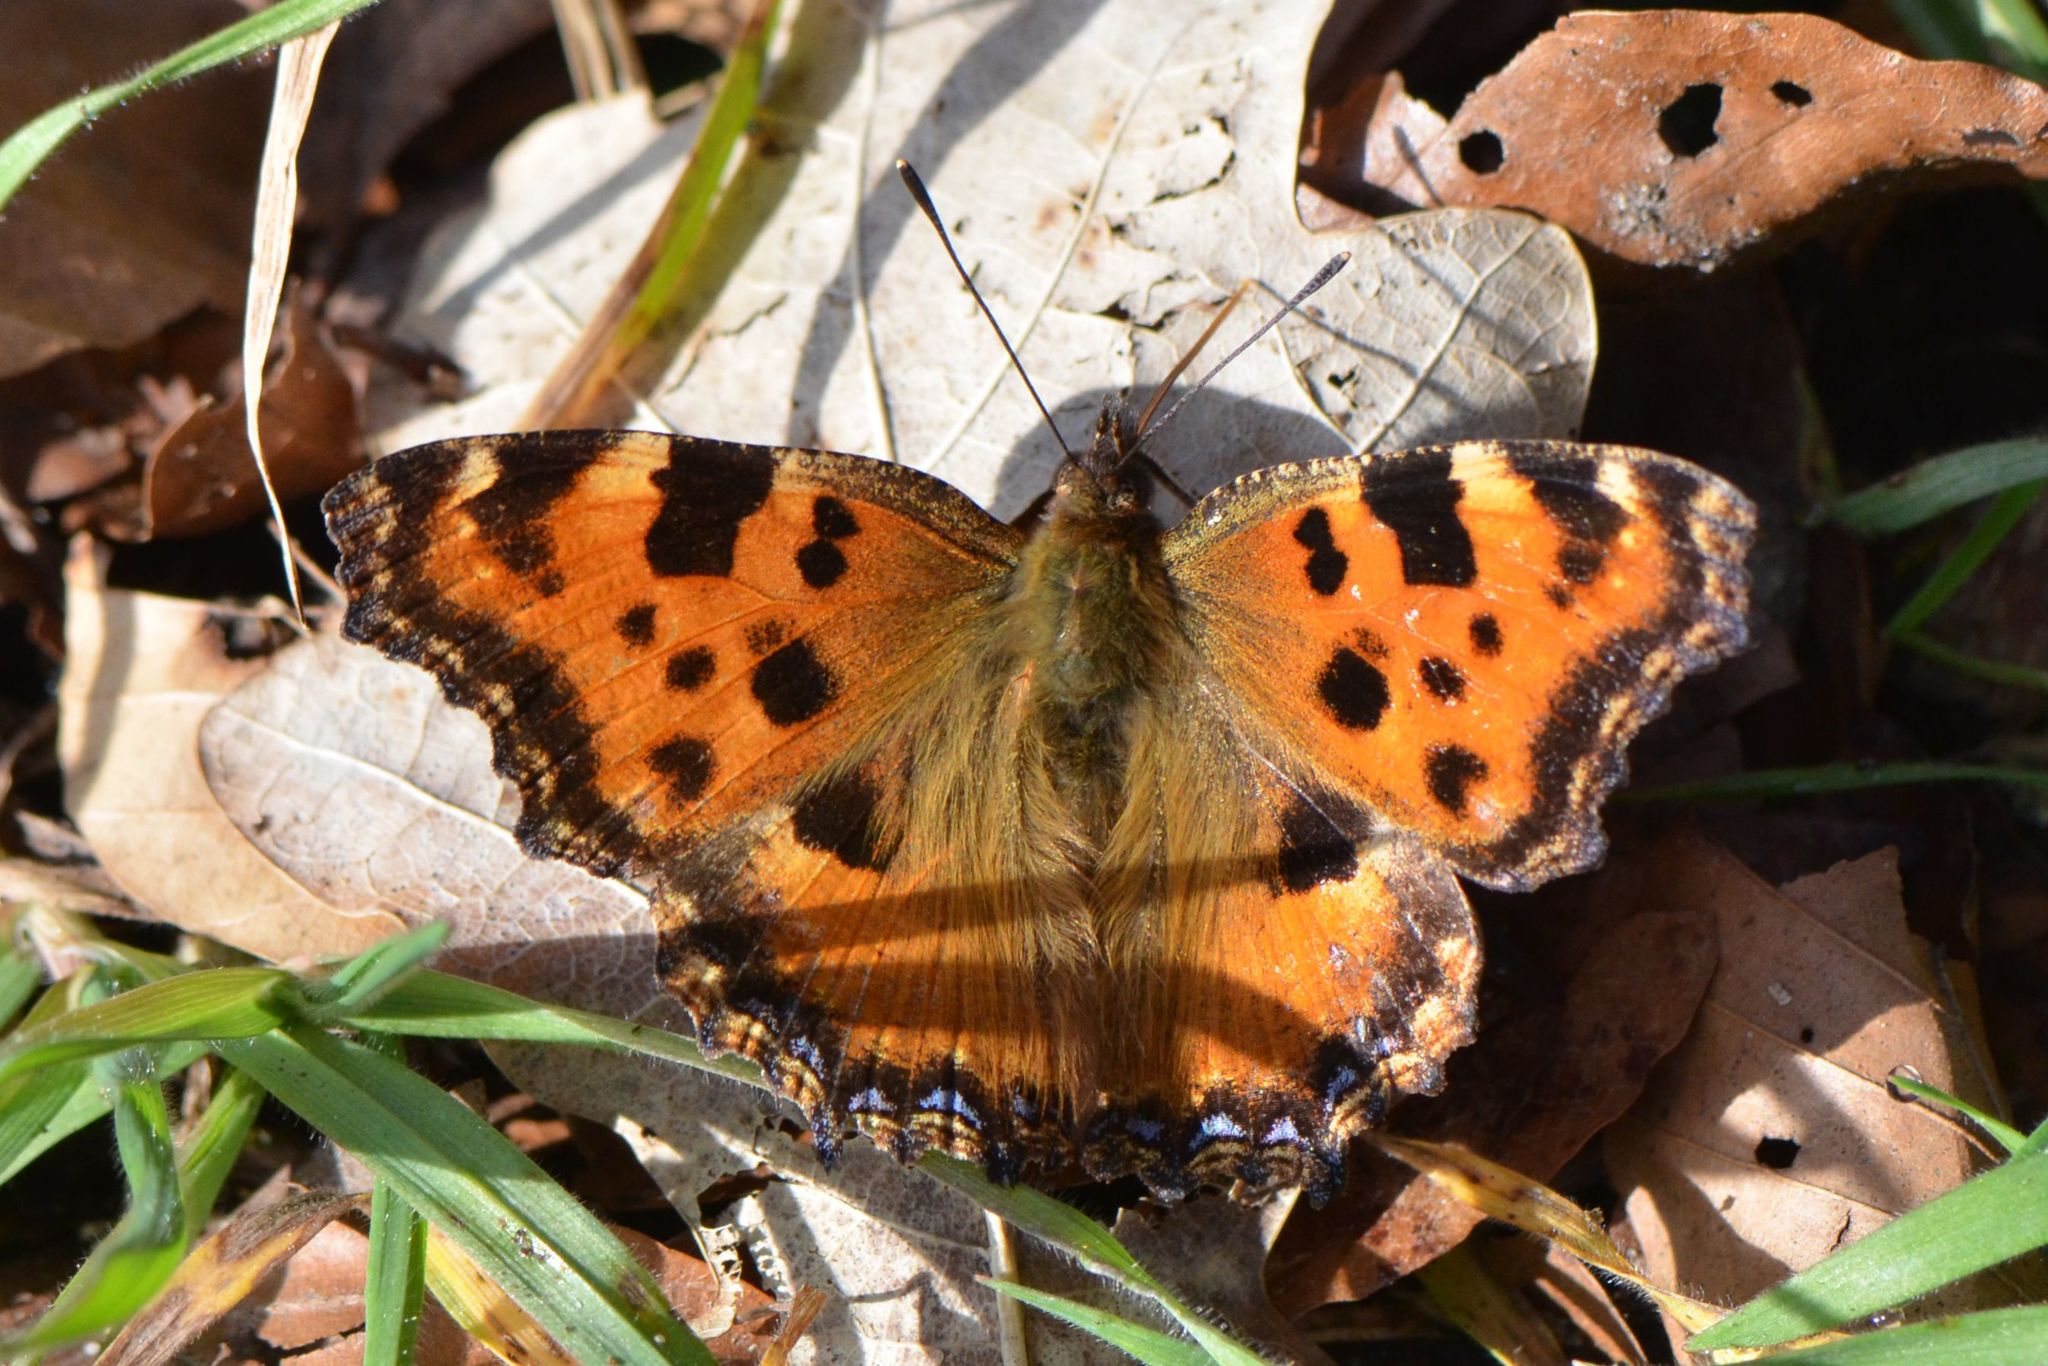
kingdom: Animalia
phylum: Arthropoda
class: Insecta
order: Lepidoptera
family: Nymphalidae
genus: Nymphalis
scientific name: Nymphalis polychloros
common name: Large tortoiseshell
